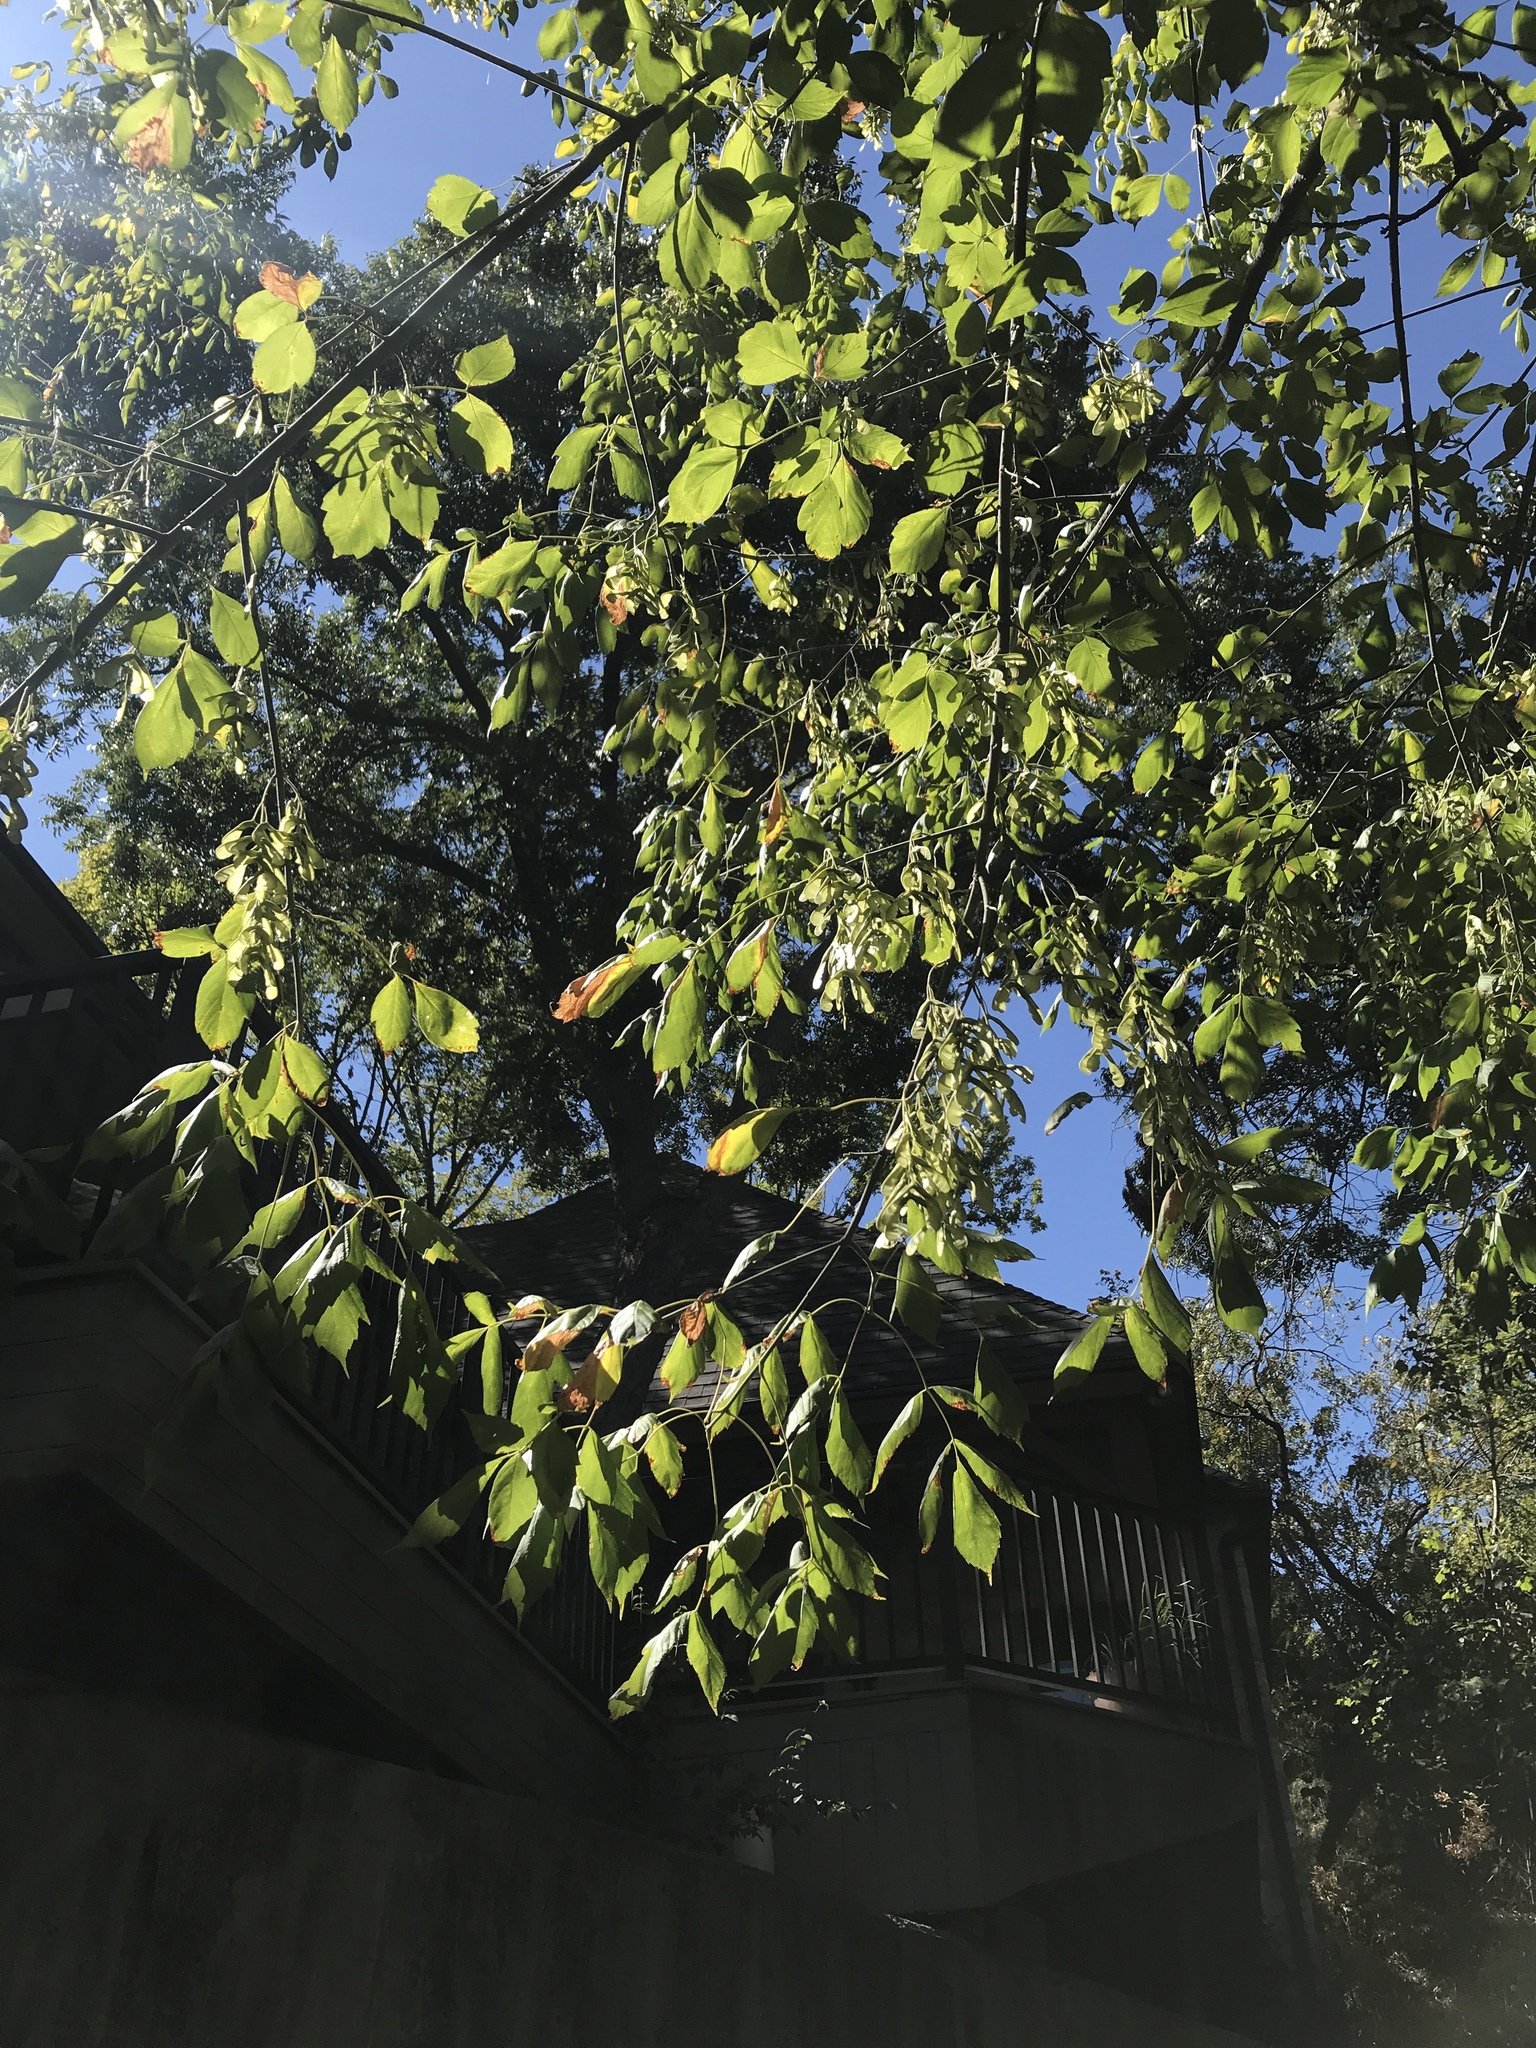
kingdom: Plantae
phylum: Tracheophyta
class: Magnoliopsida
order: Sapindales
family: Sapindaceae
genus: Acer
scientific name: Acer negundo
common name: Ashleaf maple
